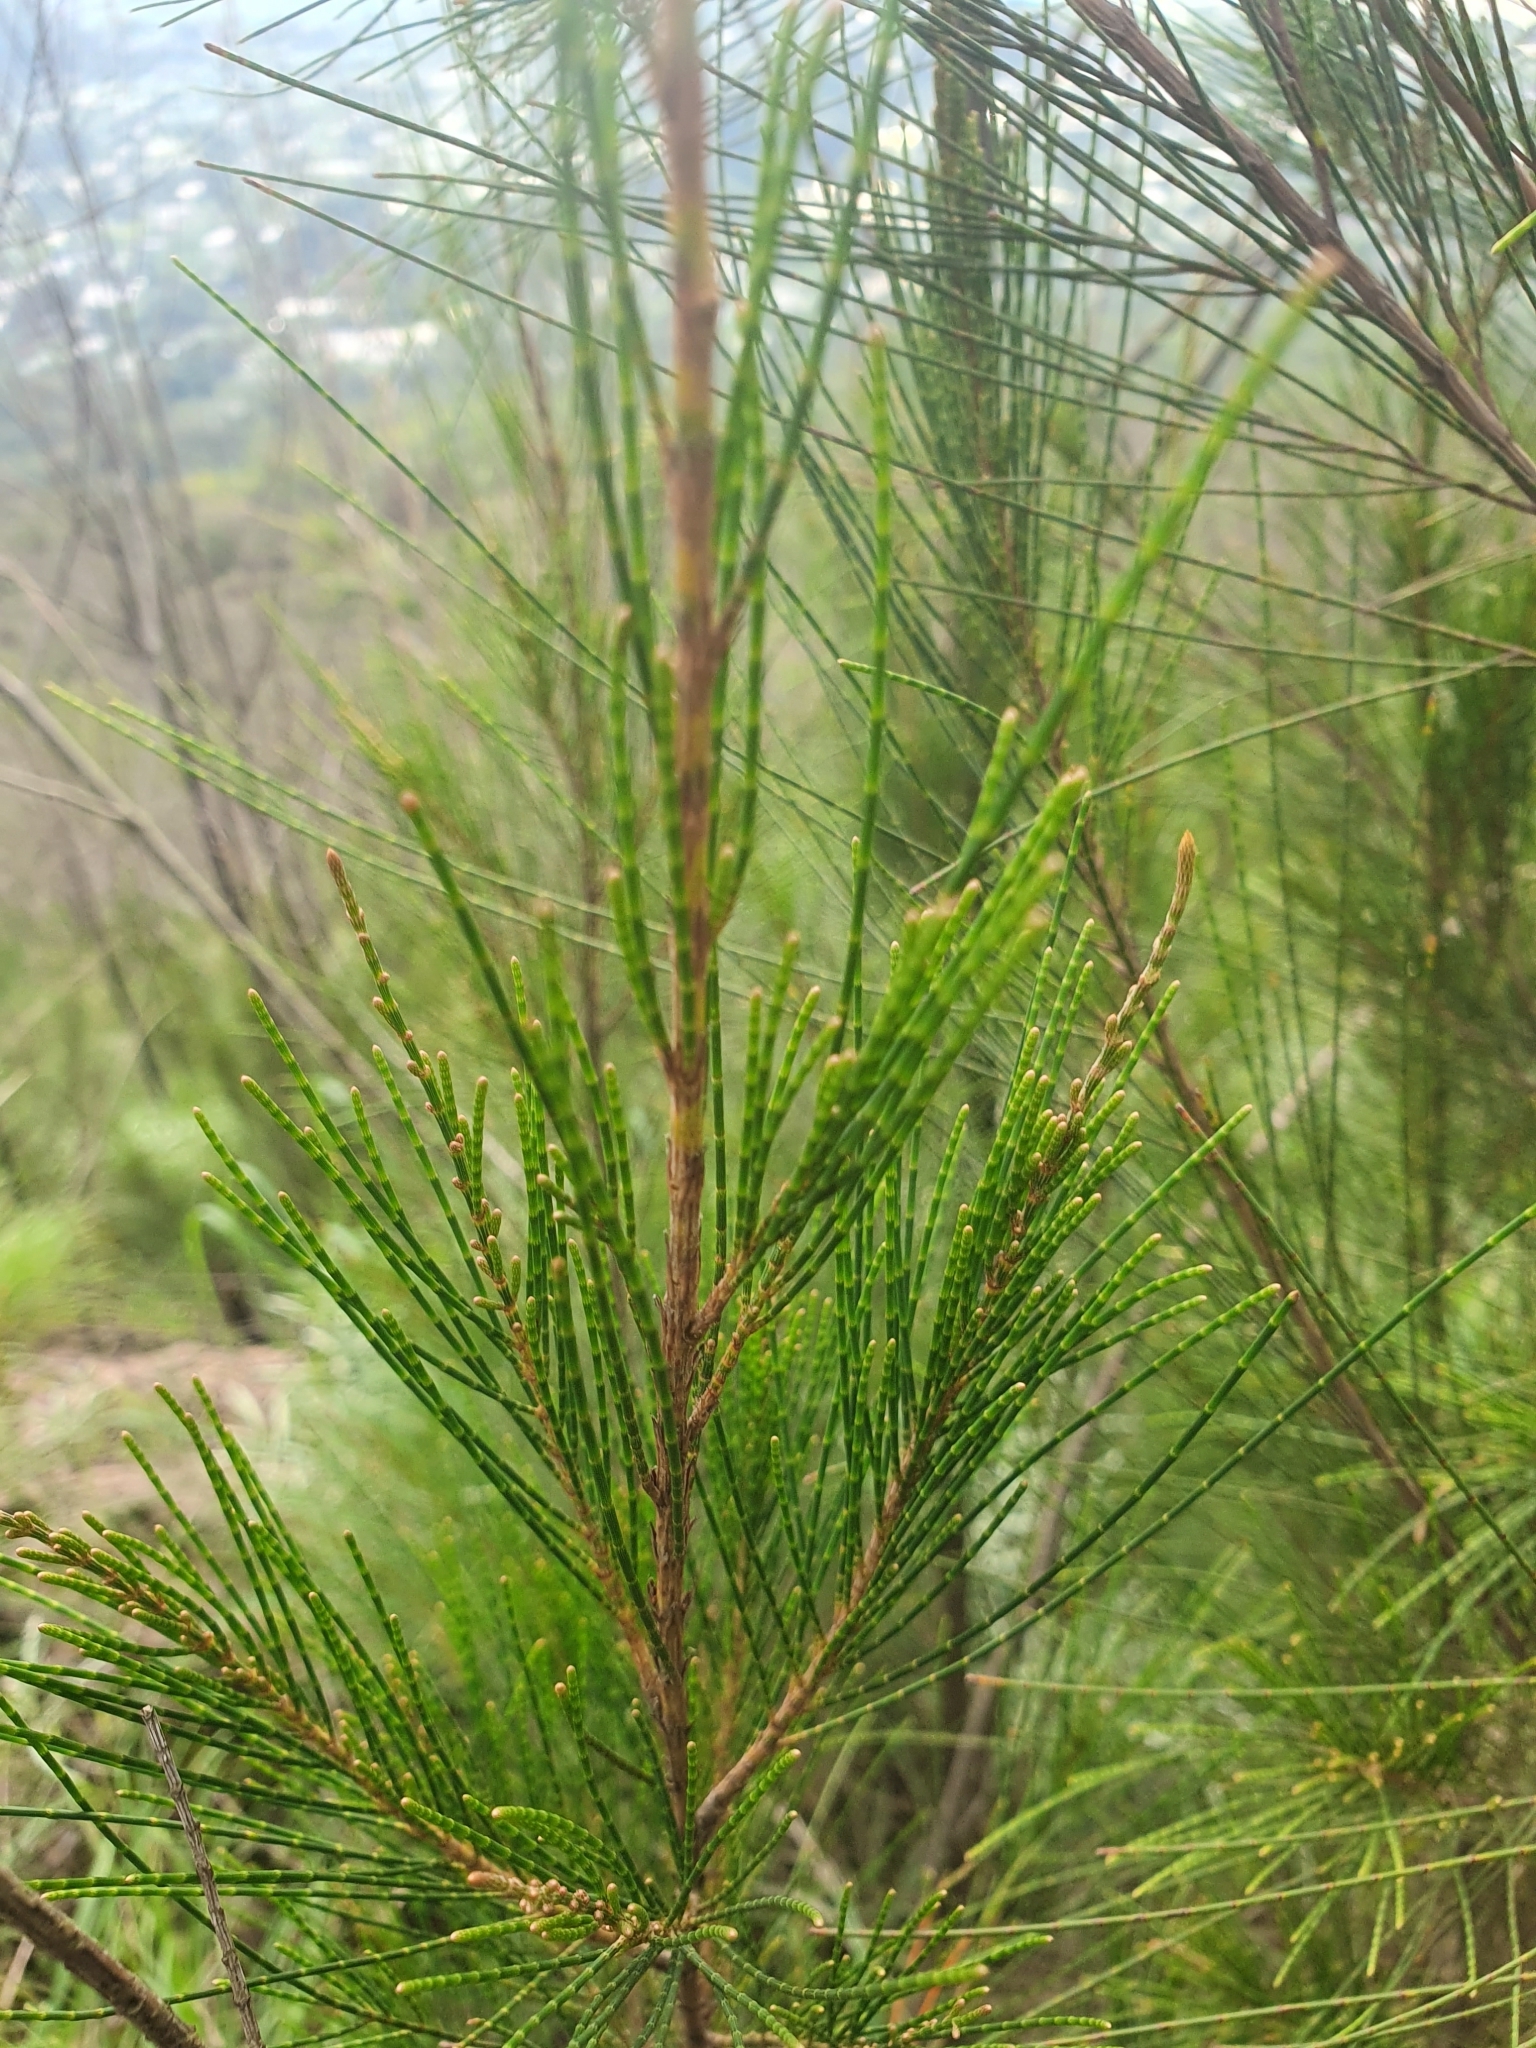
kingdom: Plantae
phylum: Tracheophyta
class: Magnoliopsida
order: Fagales
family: Casuarinaceae
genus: Casuarina
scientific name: Casuarina junghuhniana
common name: Mountain ru
